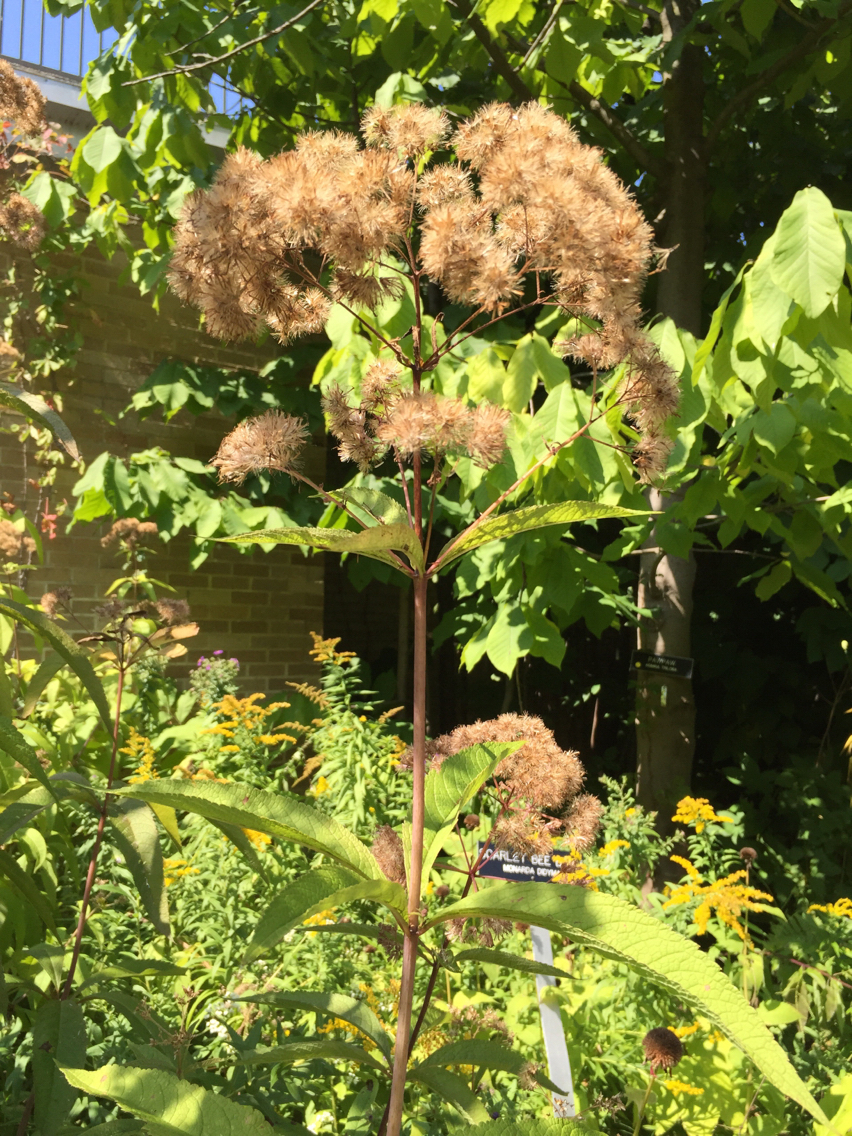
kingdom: Plantae
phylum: Tracheophyta
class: Magnoliopsida
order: Asterales
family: Asteraceae
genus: Eutrochium
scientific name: Eutrochium maculatum
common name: Spotted joe pye weed
